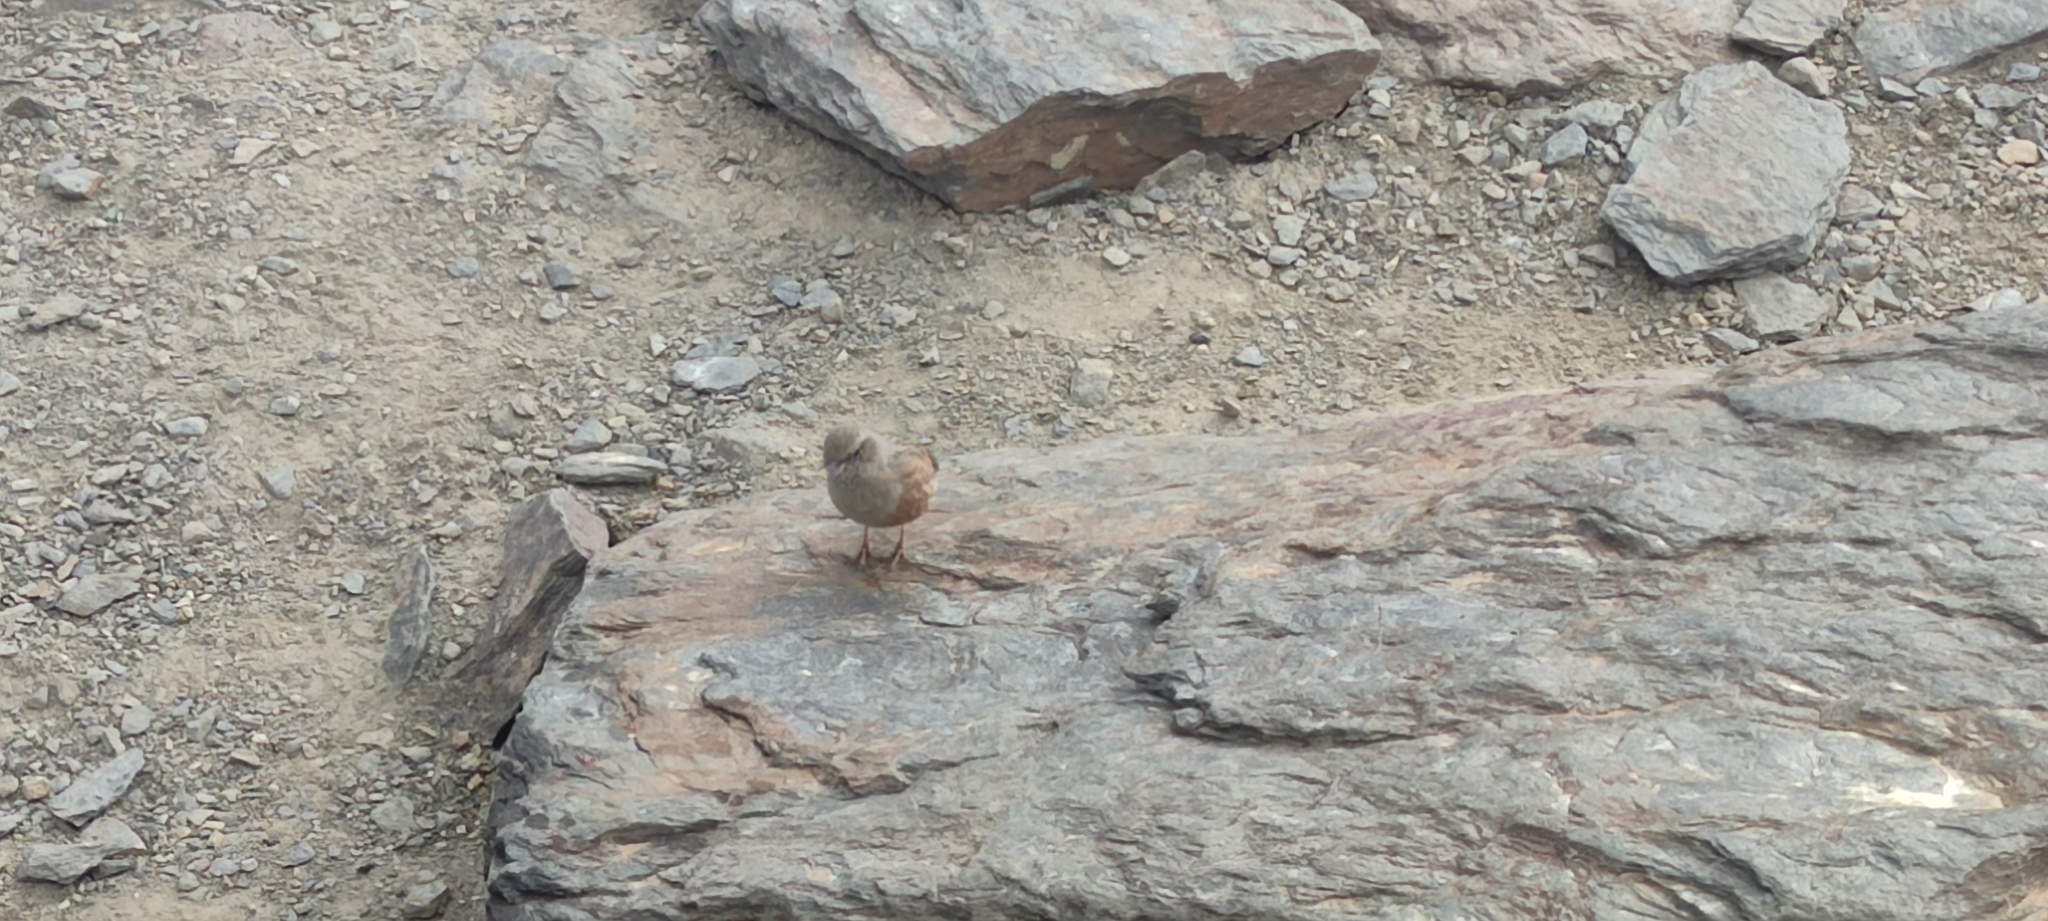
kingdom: Animalia
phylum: Chordata
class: Aves
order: Passeriformes
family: Prunellidae
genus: Prunella
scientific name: Prunella collaris
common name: Alpine accentor
